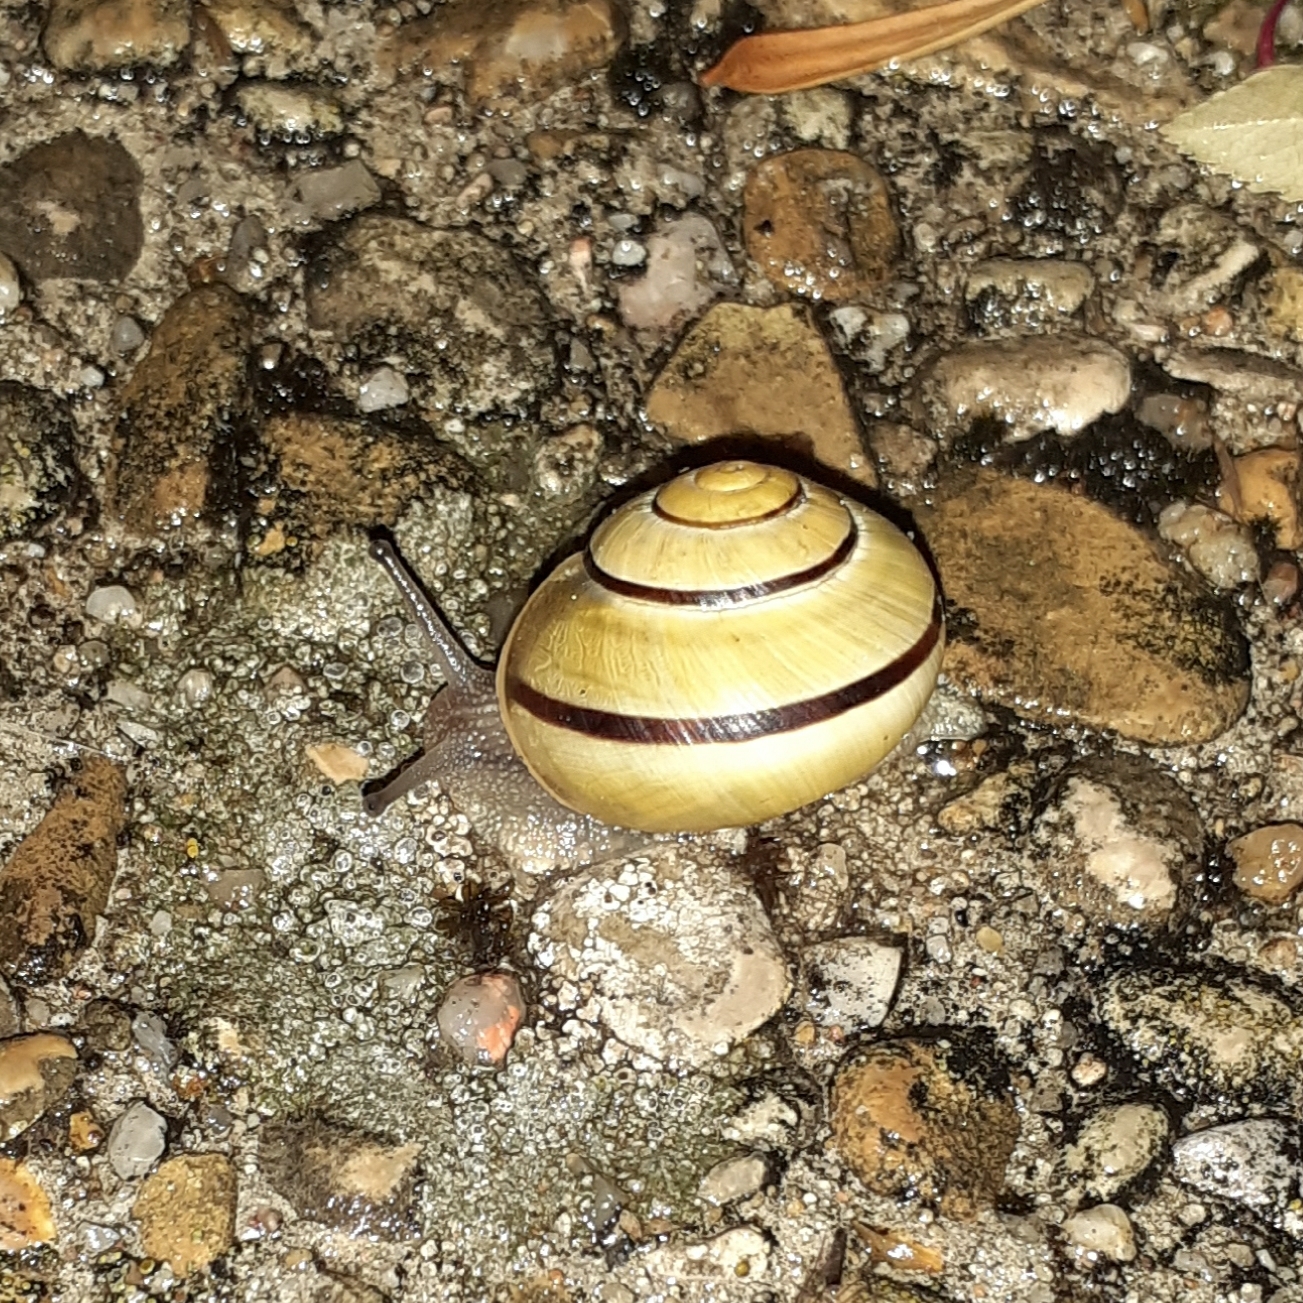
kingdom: Animalia
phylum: Mollusca
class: Gastropoda
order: Stylommatophora
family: Helicidae
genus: Cepaea
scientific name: Cepaea
